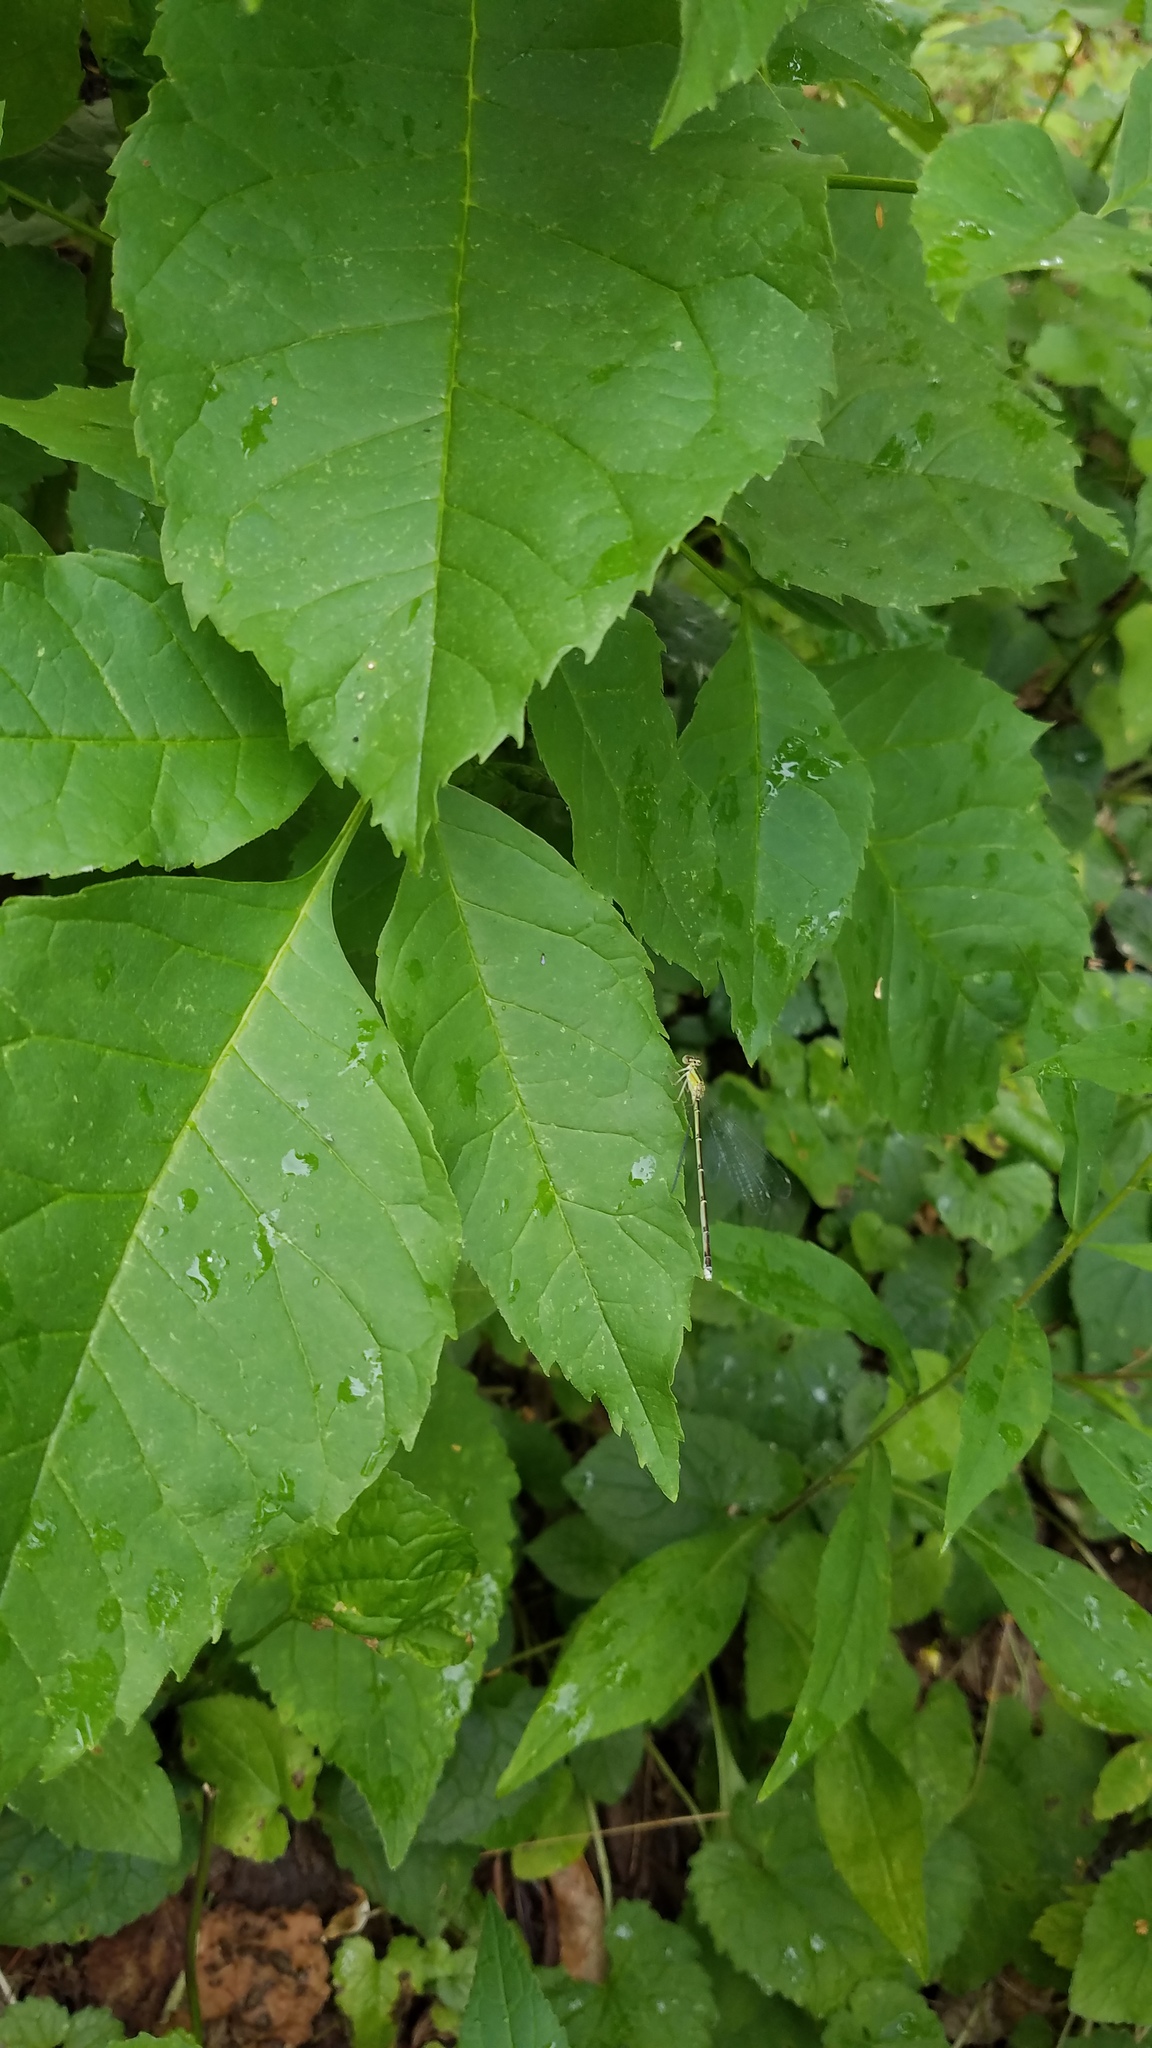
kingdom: Animalia
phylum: Arthropoda
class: Insecta
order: Odonata
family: Coenagrionidae
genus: Enallagma
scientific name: Enallagma vesperum
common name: Vesper bluet
